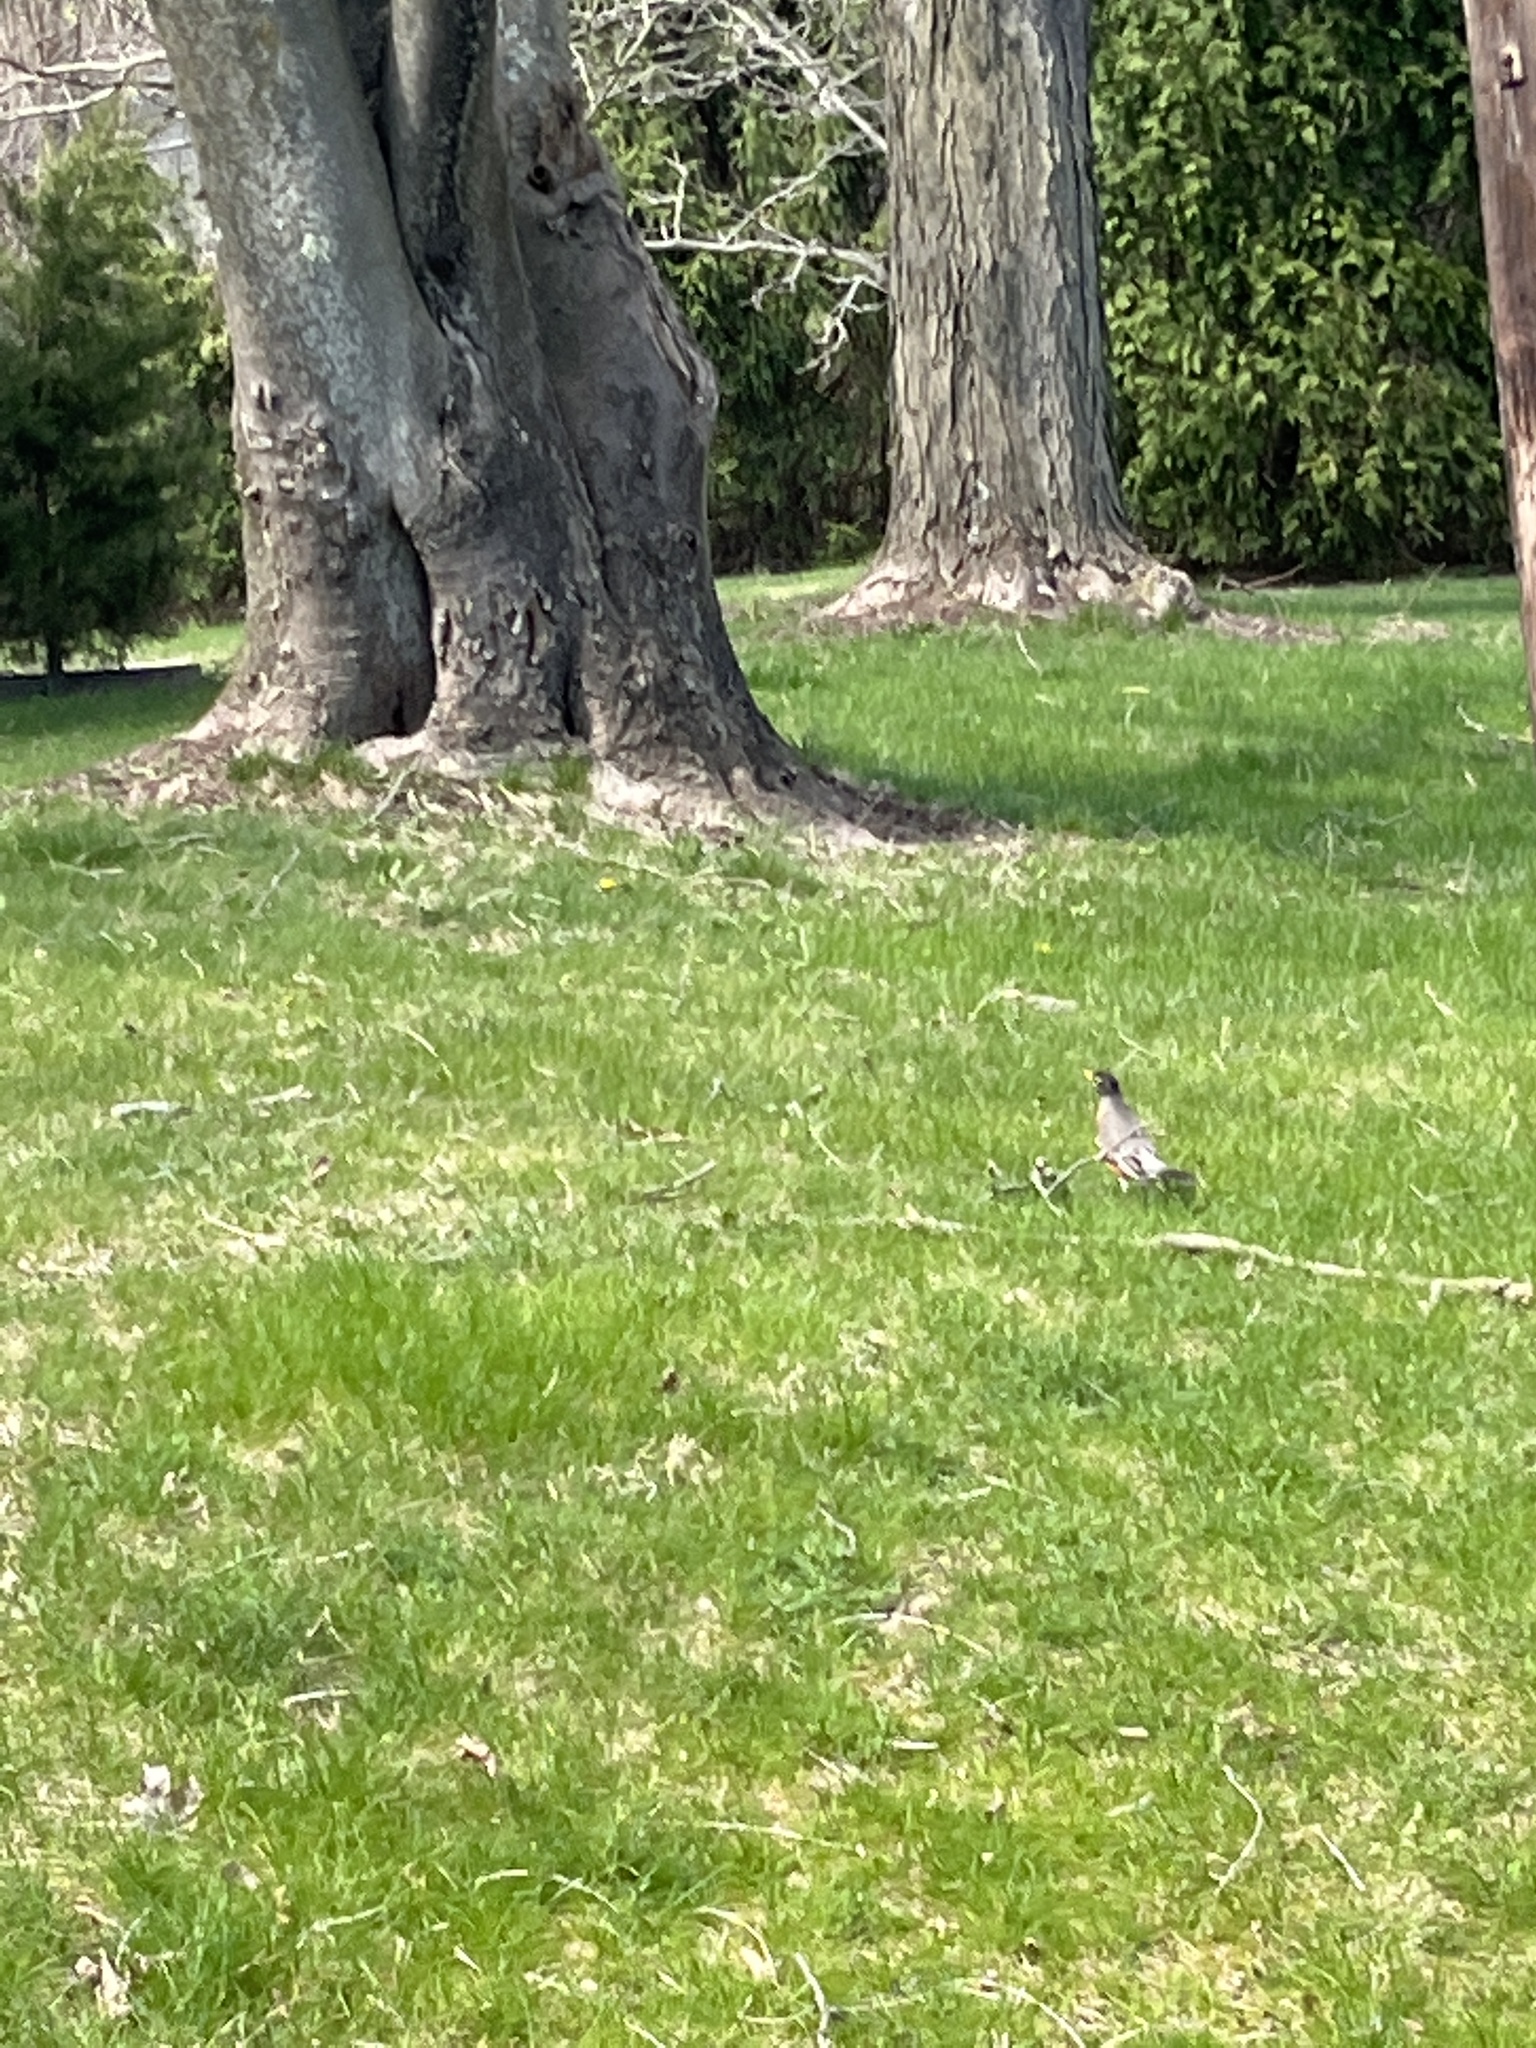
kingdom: Animalia
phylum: Chordata
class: Aves
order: Passeriformes
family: Turdidae
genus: Turdus
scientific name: Turdus migratorius
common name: American robin
